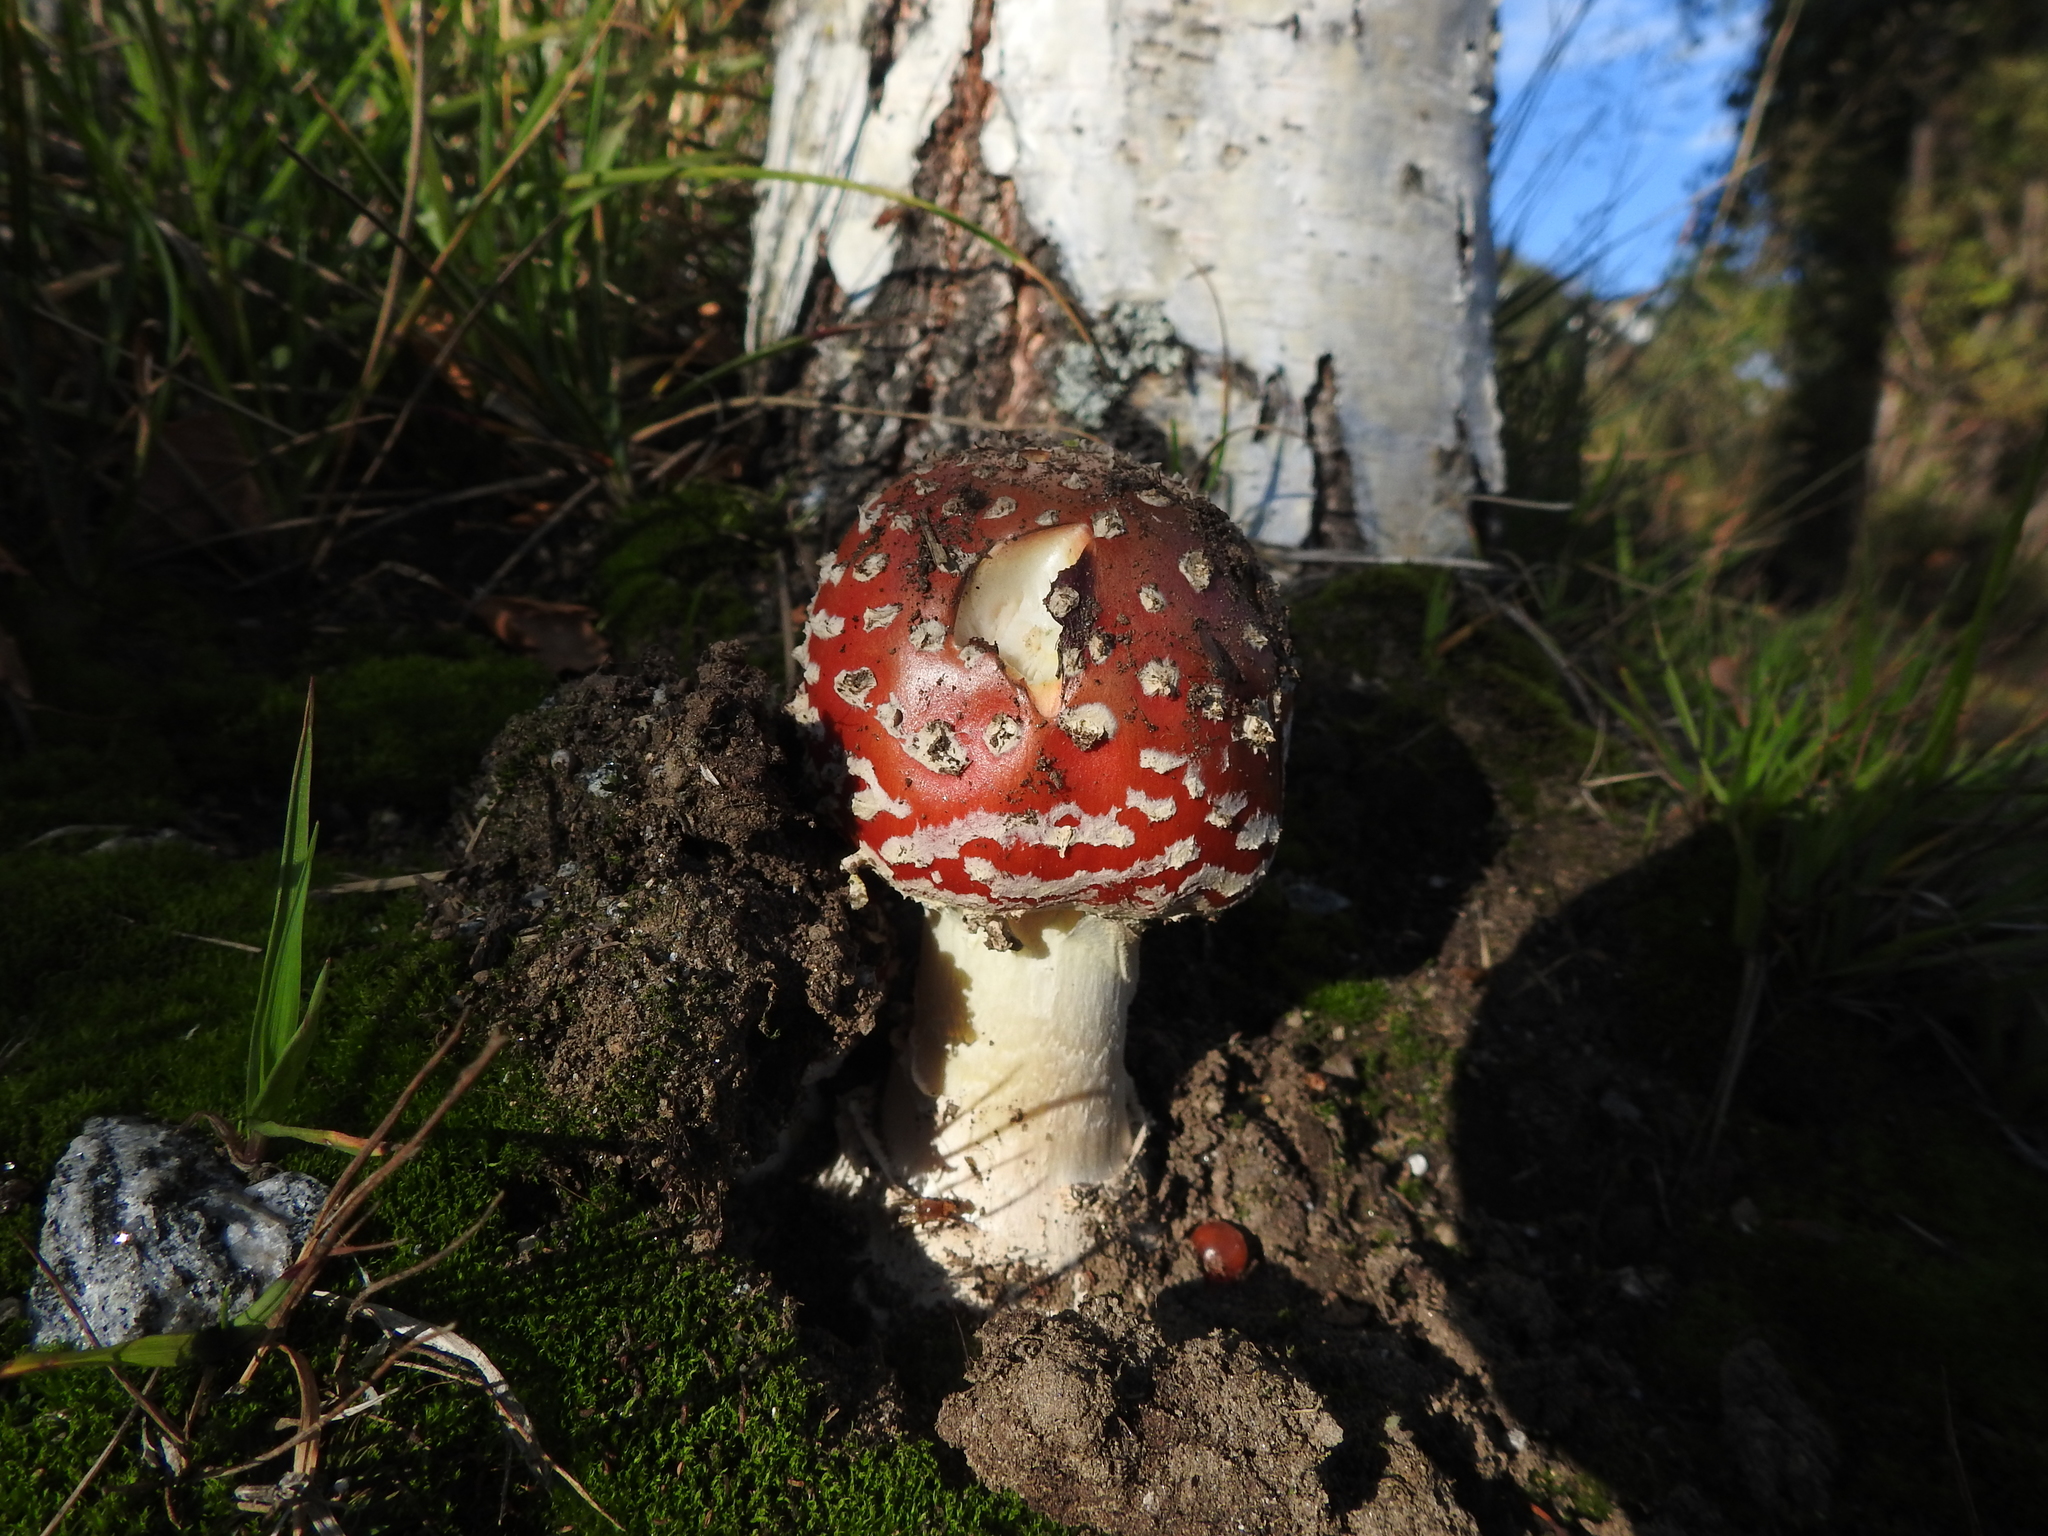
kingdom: Fungi
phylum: Basidiomycota
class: Agaricomycetes
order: Agaricales
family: Amanitaceae
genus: Amanita
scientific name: Amanita muscaria
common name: Fly agaric
